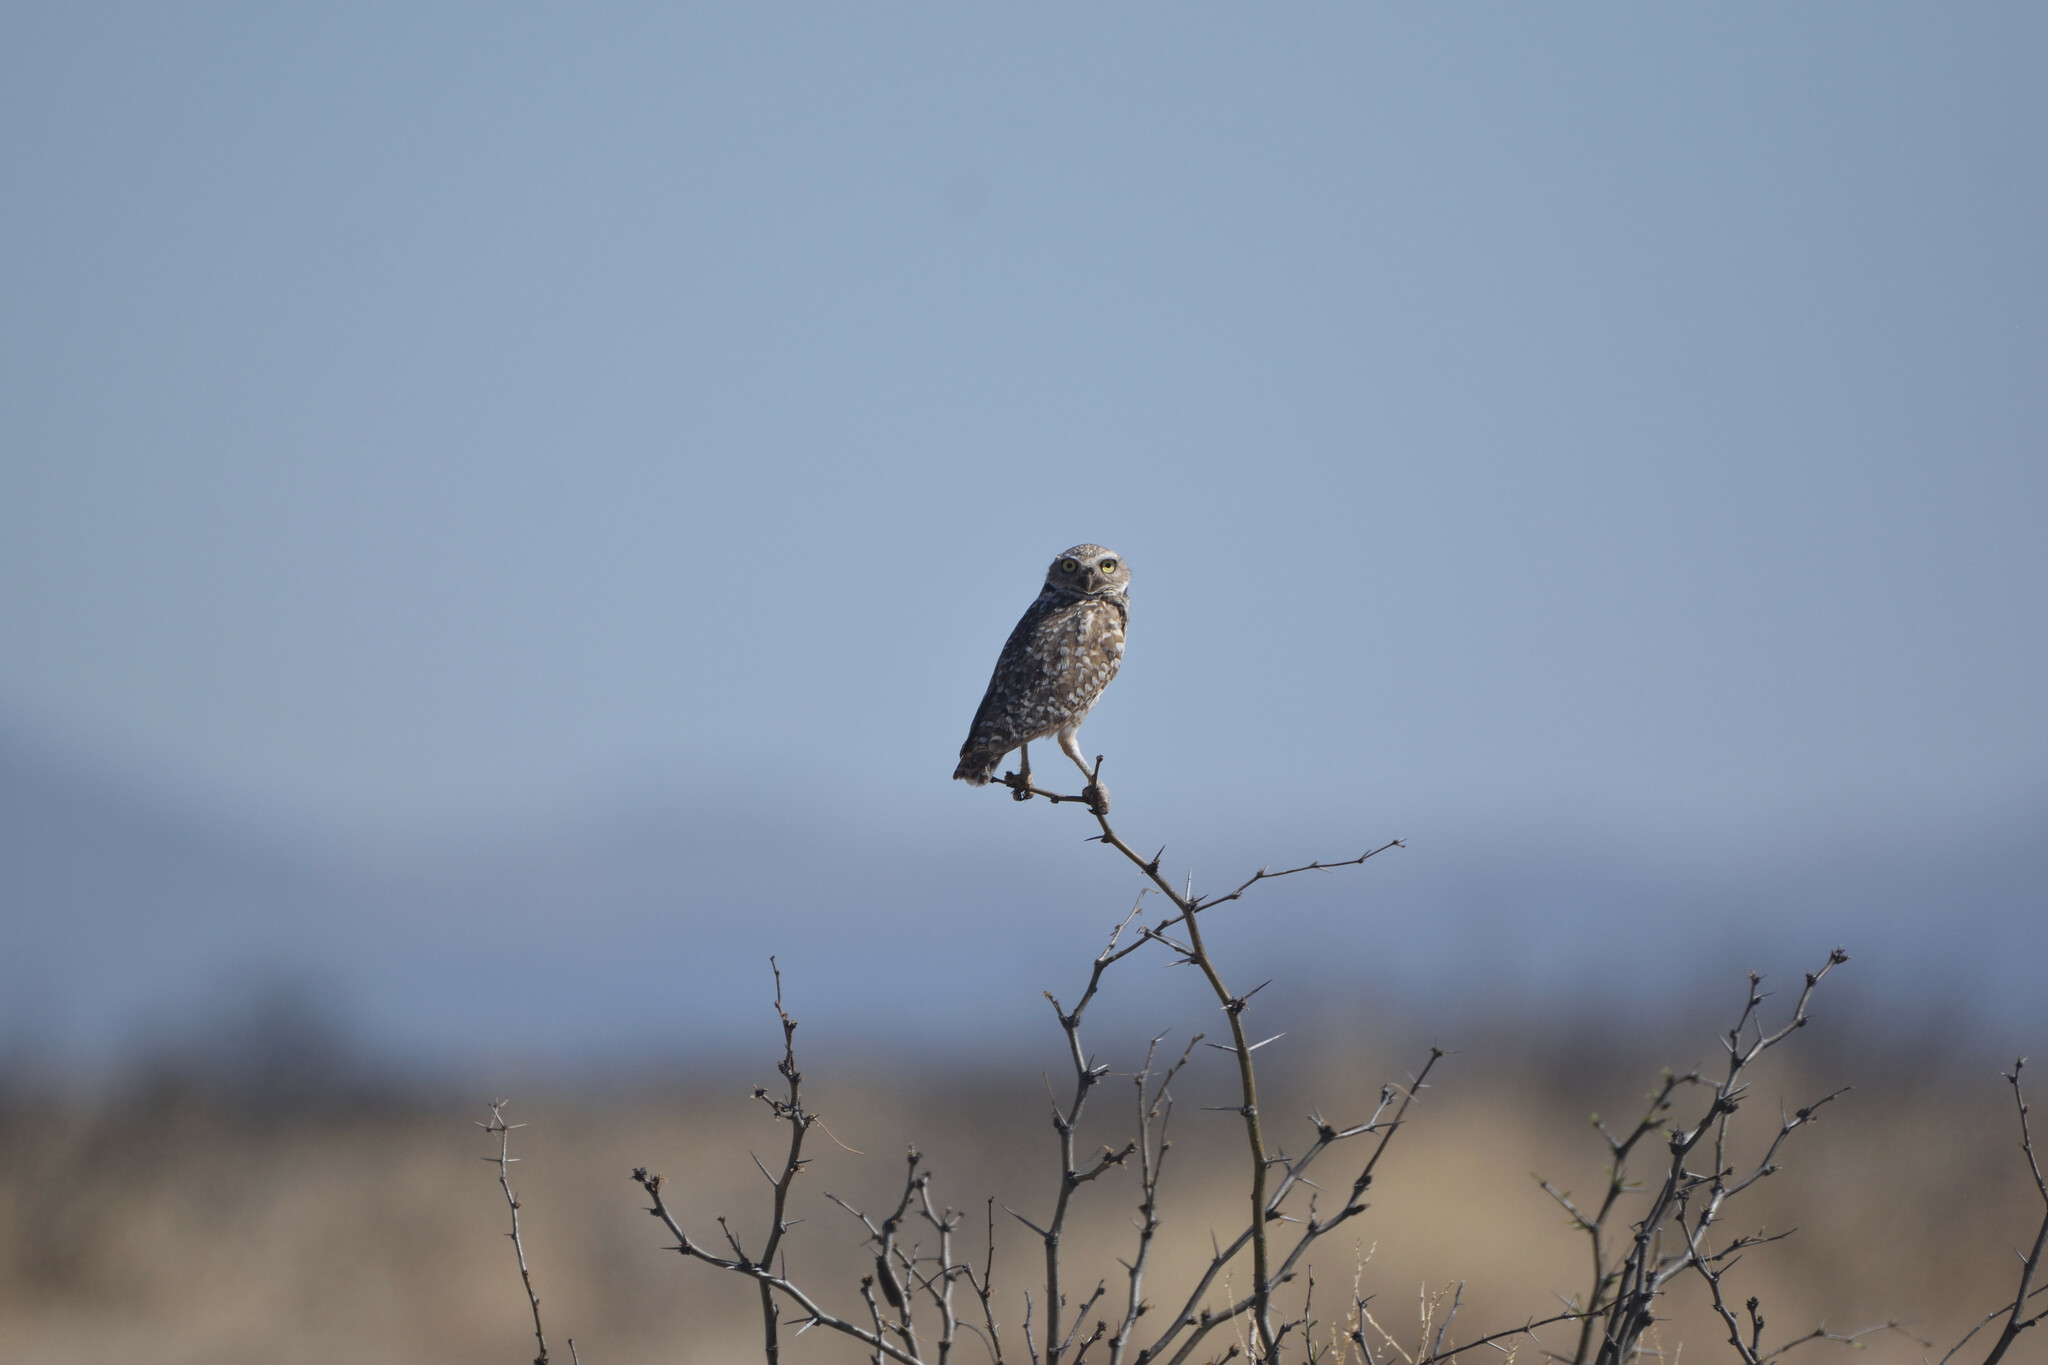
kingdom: Animalia
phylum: Chordata
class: Aves
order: Strigiformes
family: Strigidae
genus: Athene
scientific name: Athene cunicularia
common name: Burrowing owl
